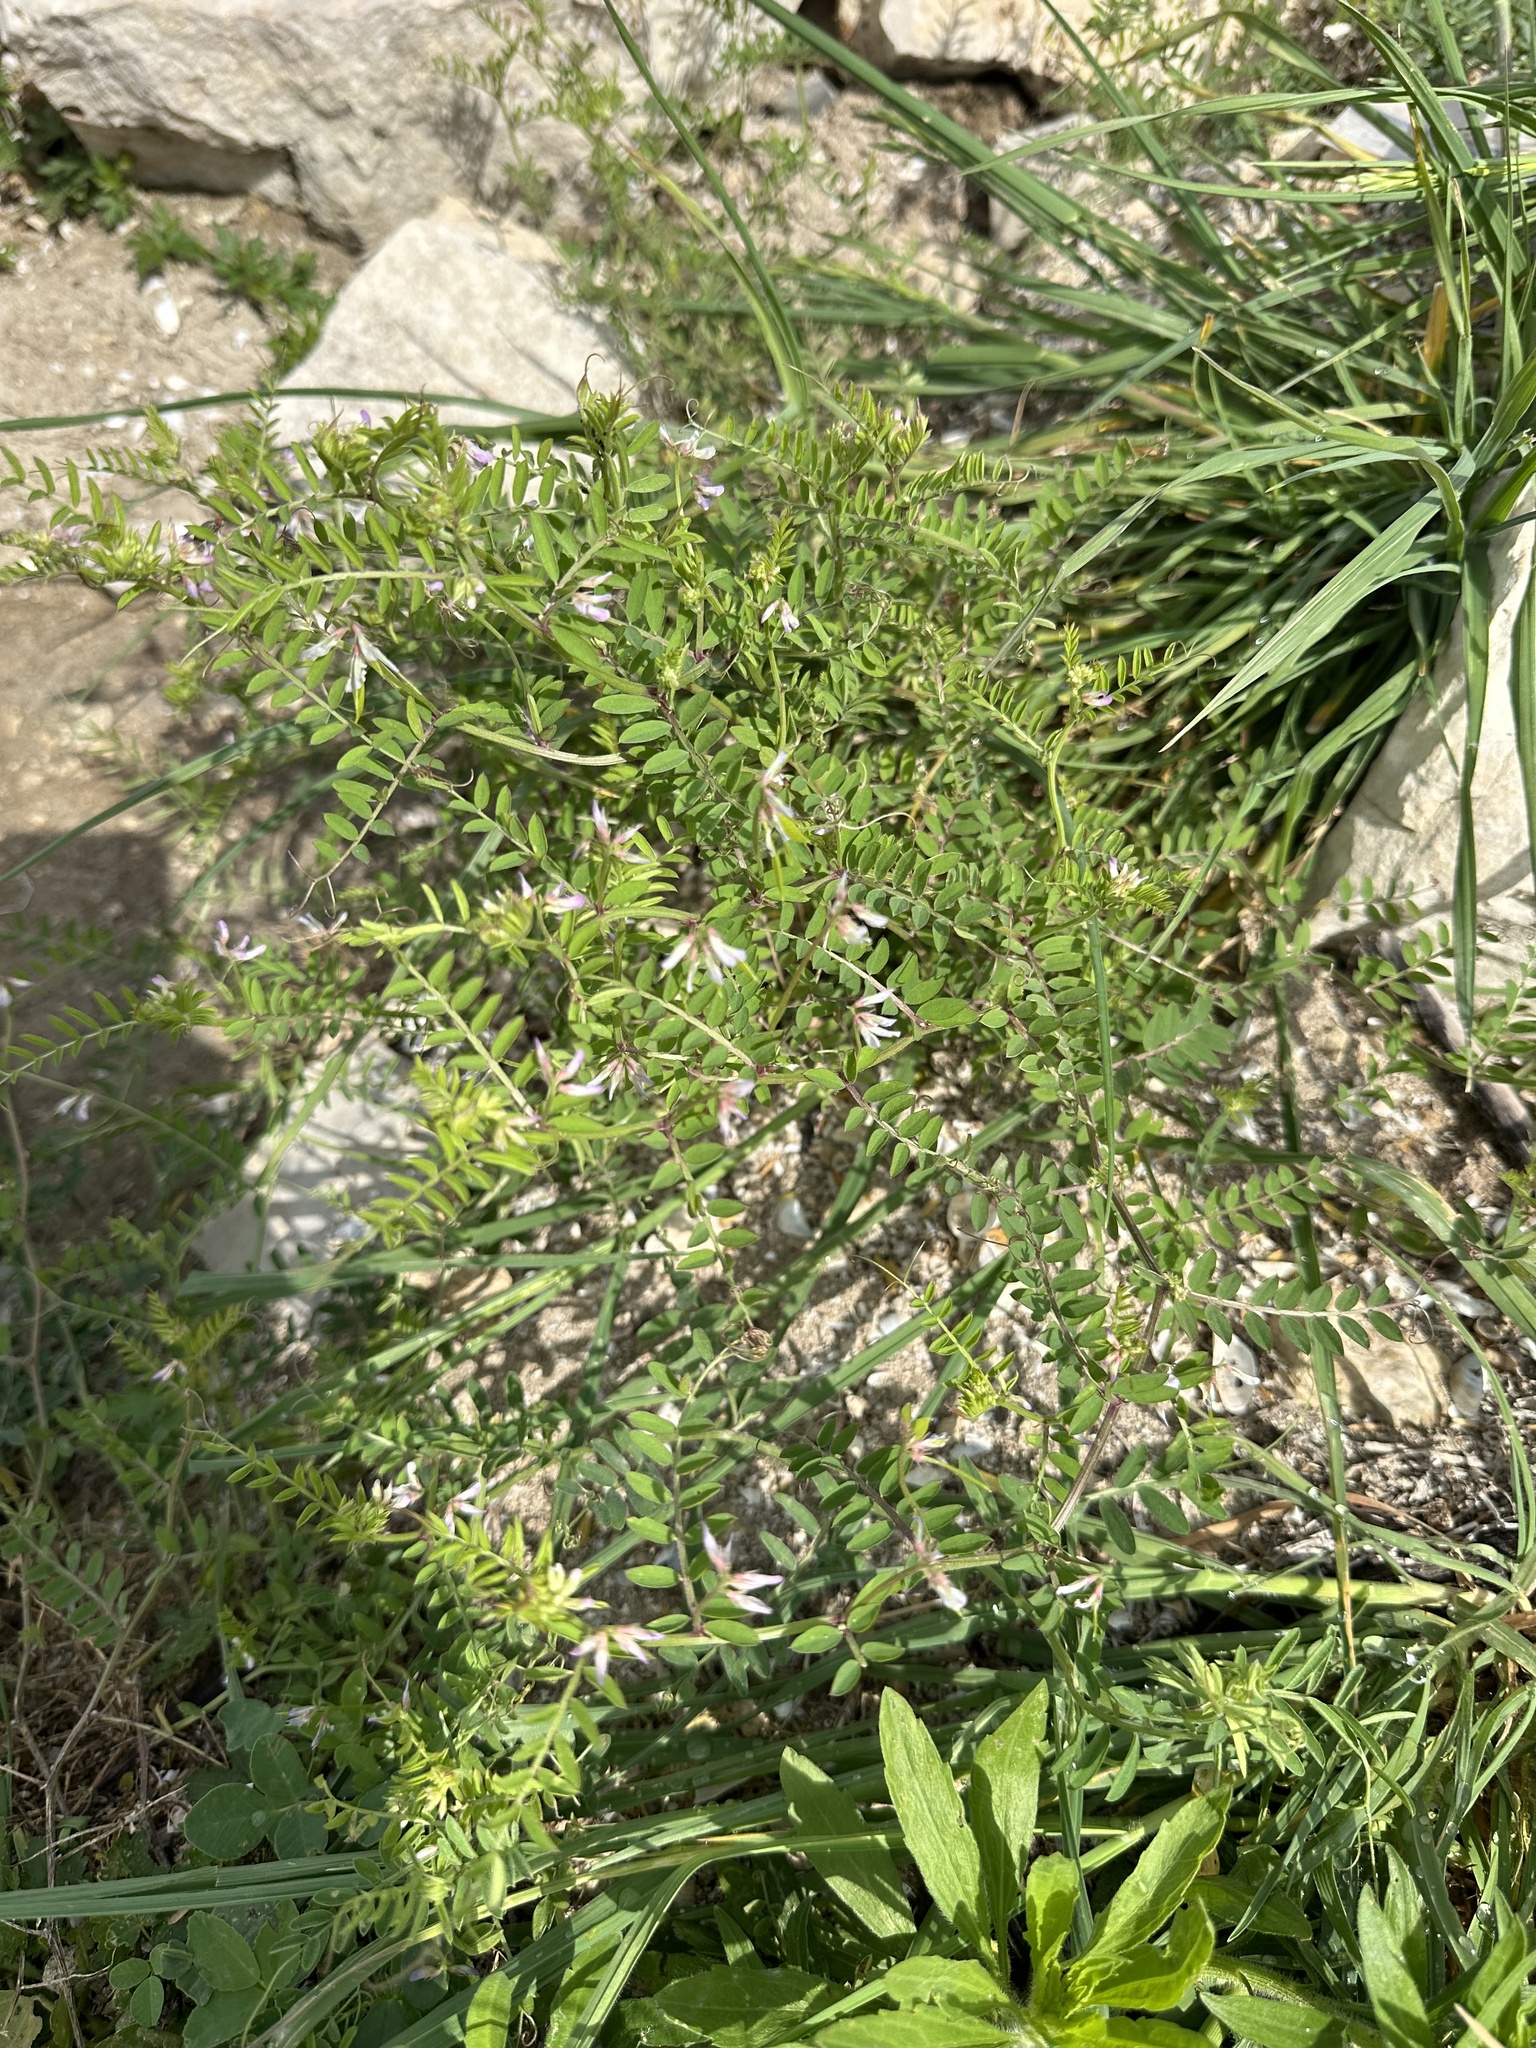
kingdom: Plantae
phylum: Tracheophyta
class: Magnoliopsida
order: Fabales
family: Fabaceae
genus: Vicia
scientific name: Vicia ludoviciana
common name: Louisiana vetch
